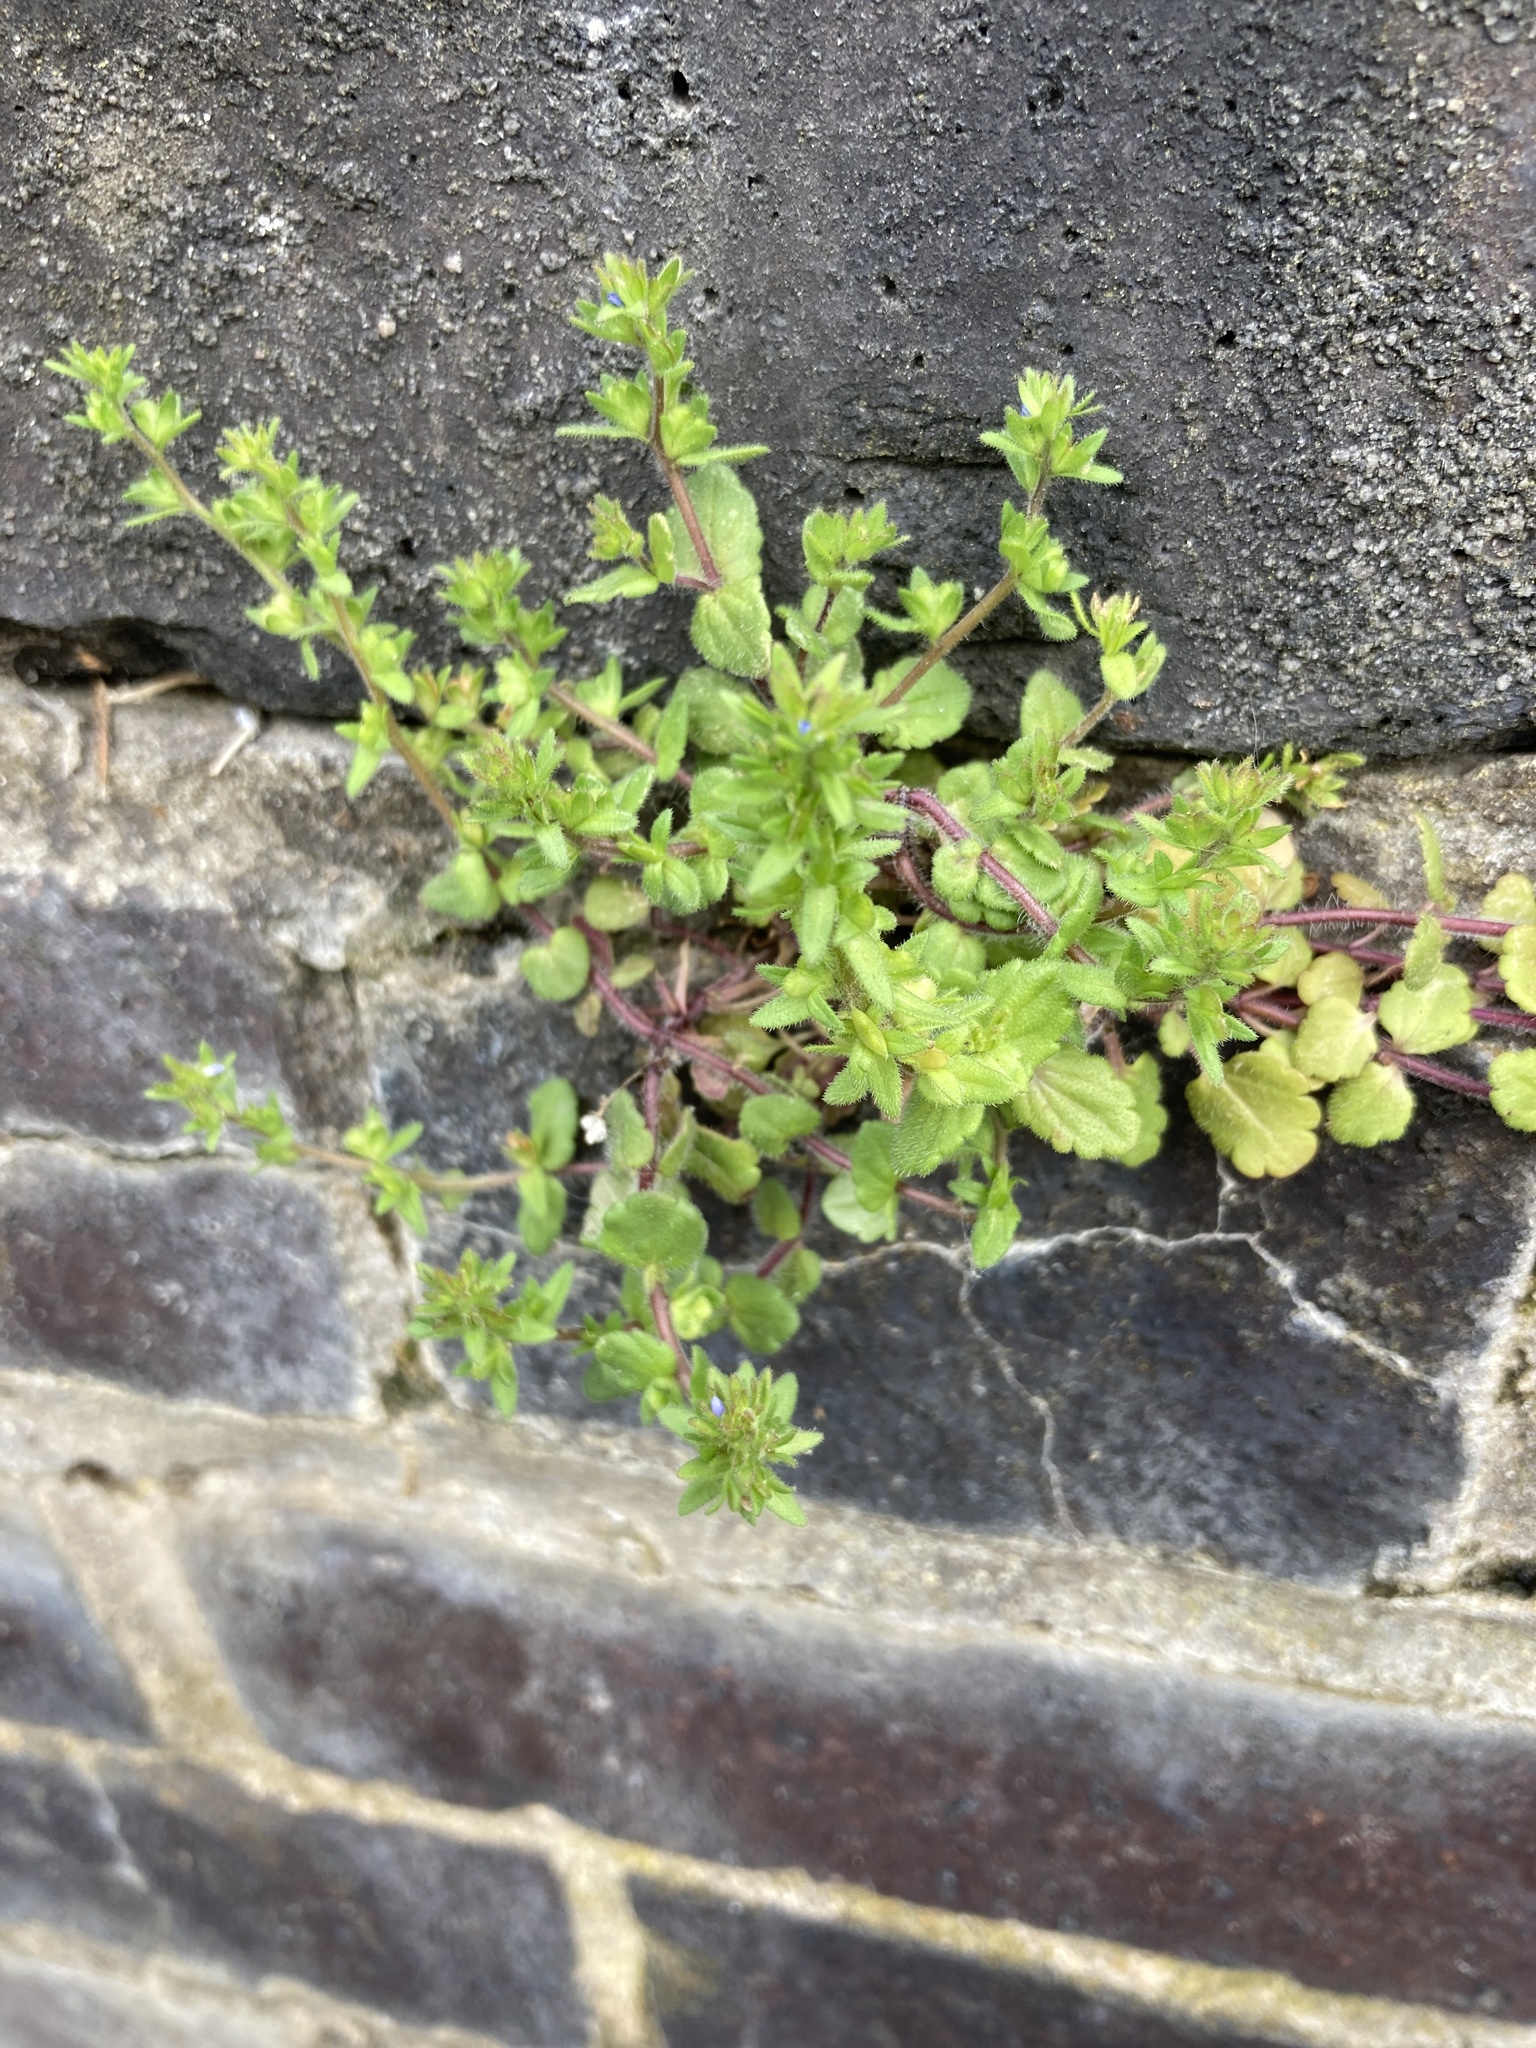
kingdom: Plantae
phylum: Tracheophyta
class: Magnoliopsida
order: Lamiales
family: Plantaginaceae
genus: Veronica
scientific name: Veronica arvensis
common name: Corn speedwell
